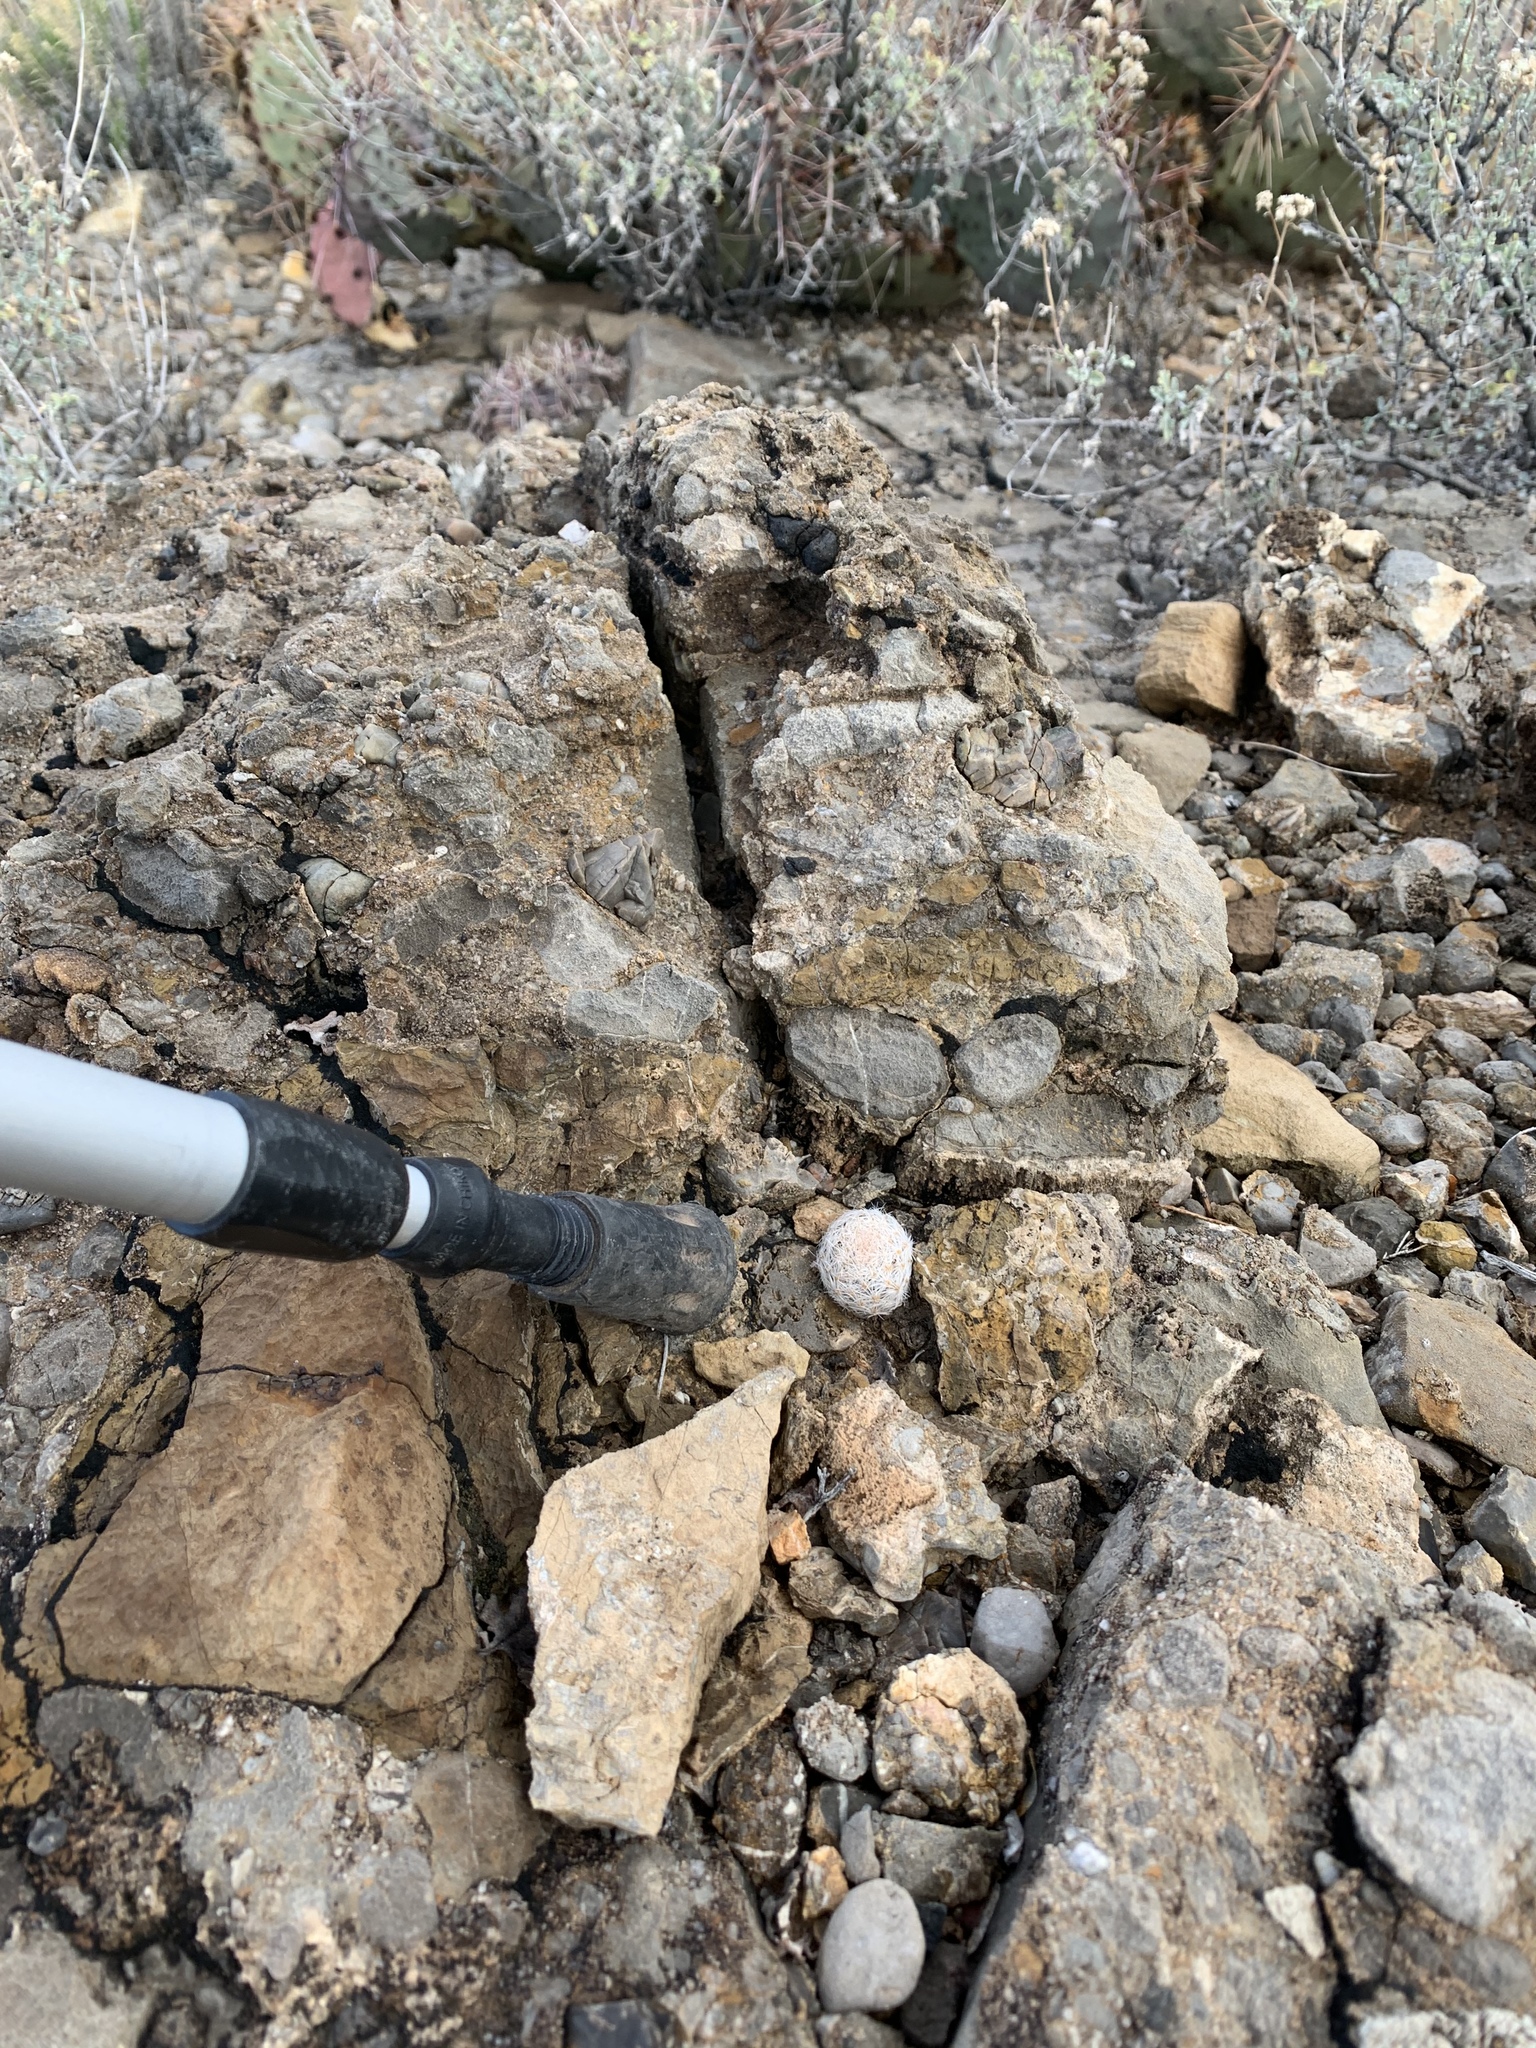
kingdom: Plantae
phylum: Tracheophyta
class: Magnoliopsida
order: Caryophyllales
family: Cactaceae
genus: Mammillaria
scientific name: Mammillaria lasiacantha
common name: Lace-spine nipple cactus
